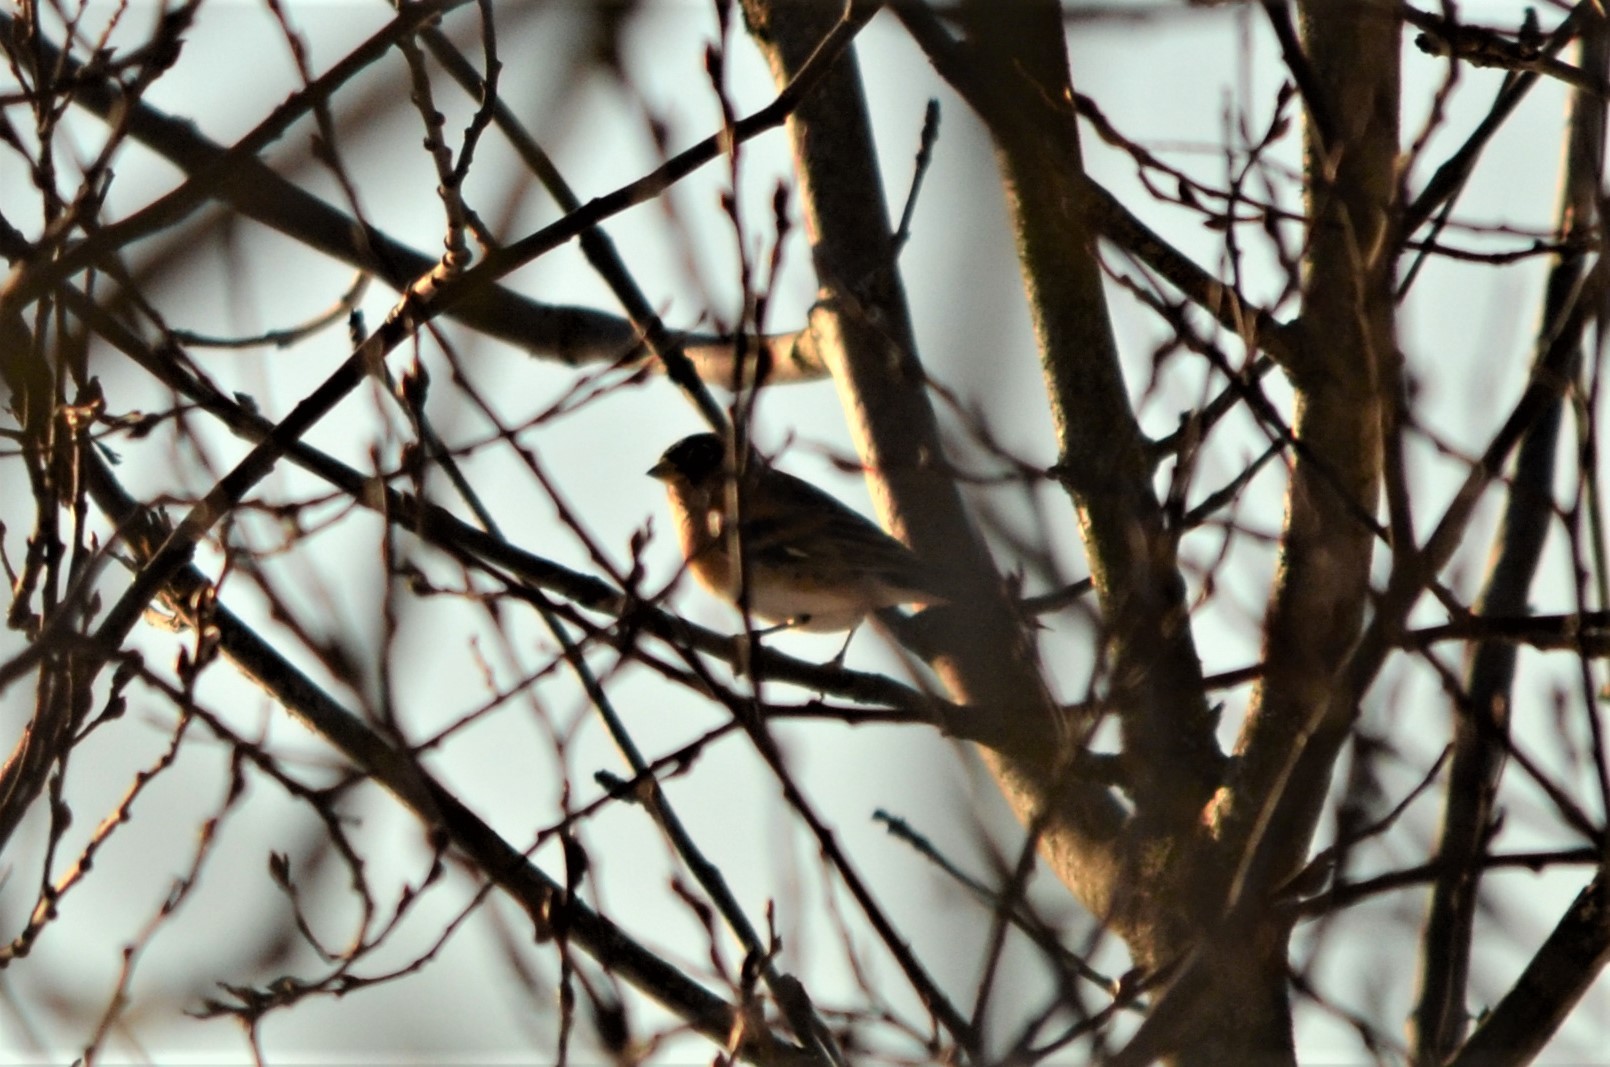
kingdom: Animalia
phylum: Chordata
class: Aves
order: Passeriformes
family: Fringillidae
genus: Fringilla
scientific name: Fringilla montifringilla
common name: Brambling
